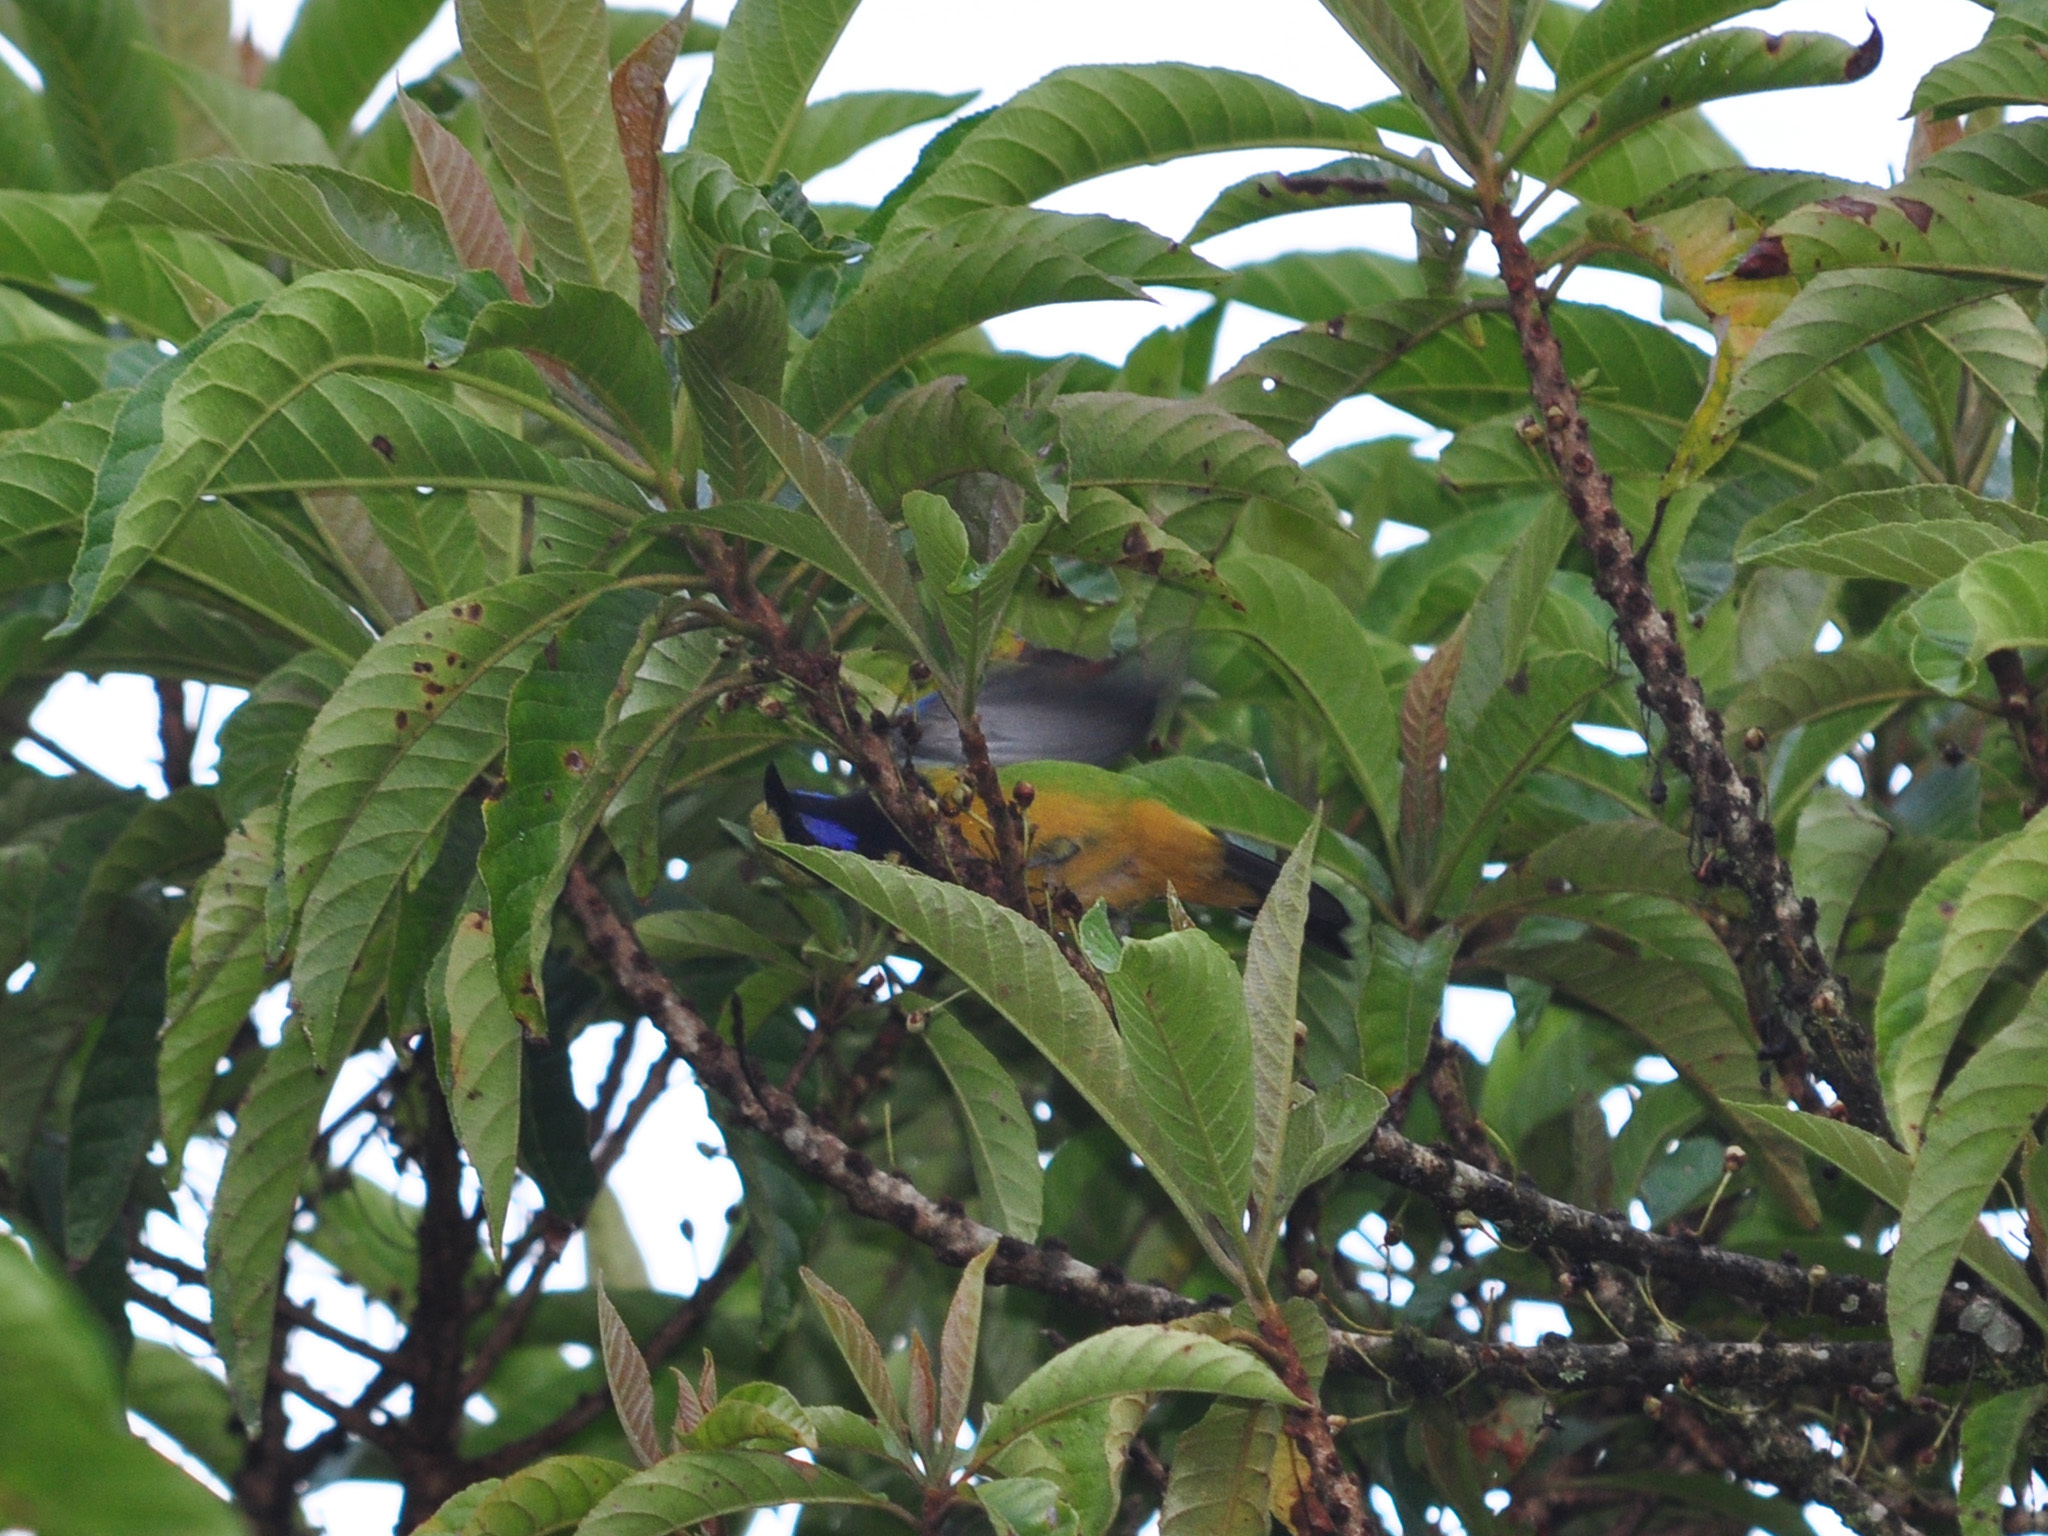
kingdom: Animalia
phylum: Chordata
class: Aves
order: Passeriformes
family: Chloropseidae
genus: Chloropsis
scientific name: Chloropsis hardwickii
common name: Orange-bellied leafbird
